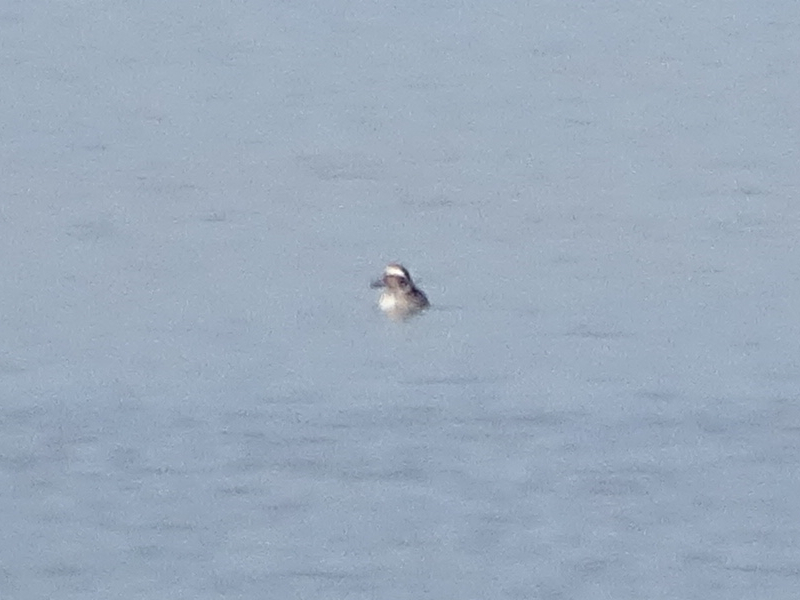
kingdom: Animalia
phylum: Chordata
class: Aves
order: Anseriformes
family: Anatidae
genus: Spatula
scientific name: Spatula querquedula
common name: Garganey
